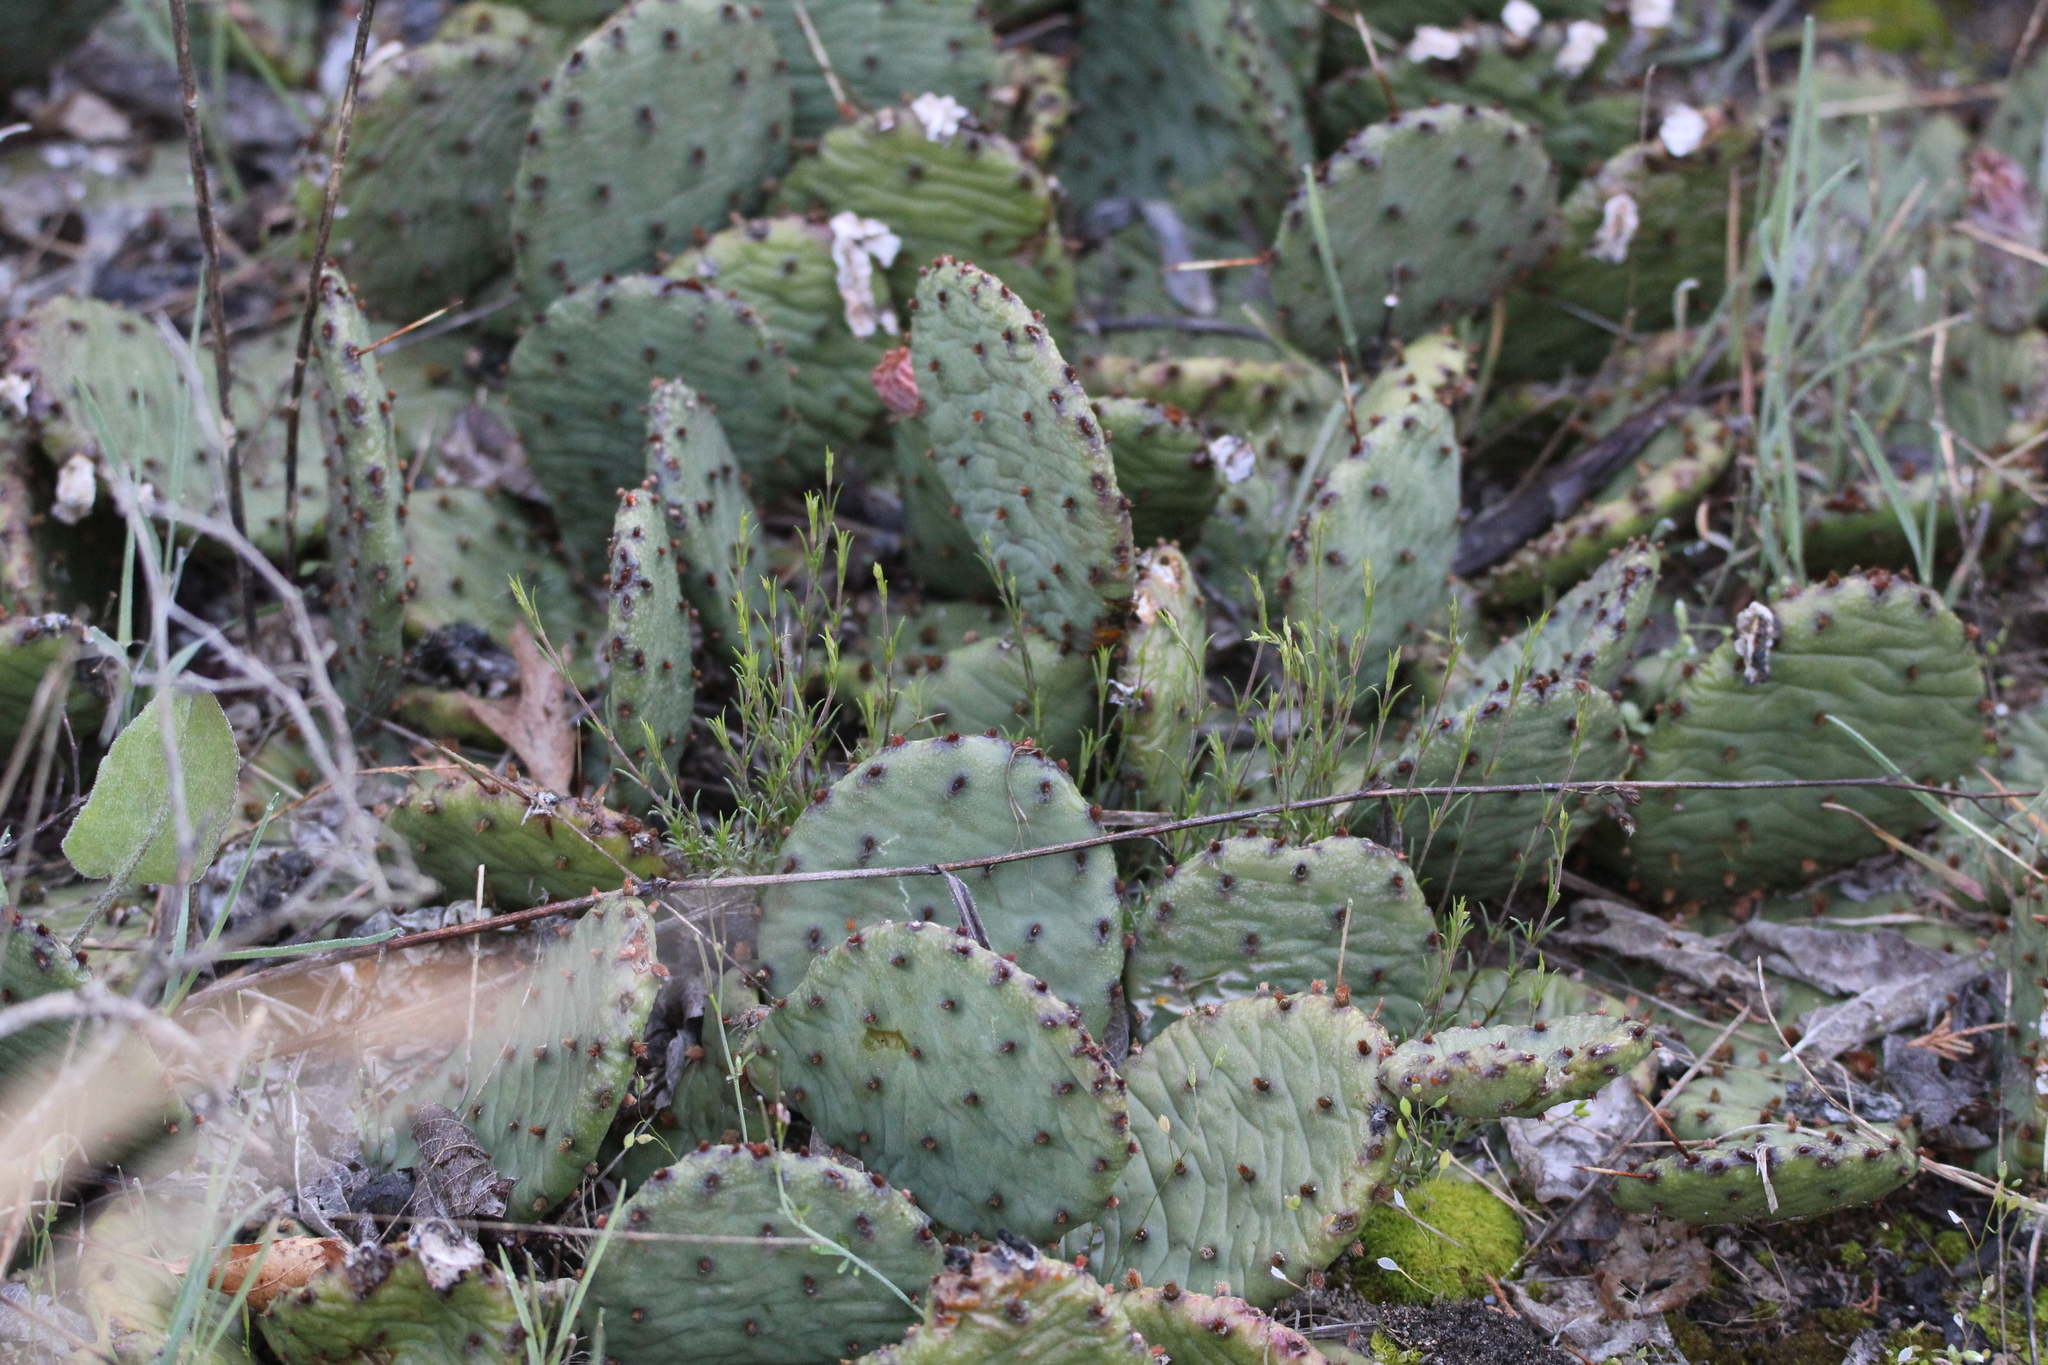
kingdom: Plantae
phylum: Tracheophyta
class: Magnoliopsida
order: Caryophyllales
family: Cactaceae
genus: Opuntia
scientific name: Opuntia humifusa
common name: Eastern prickly-pear
